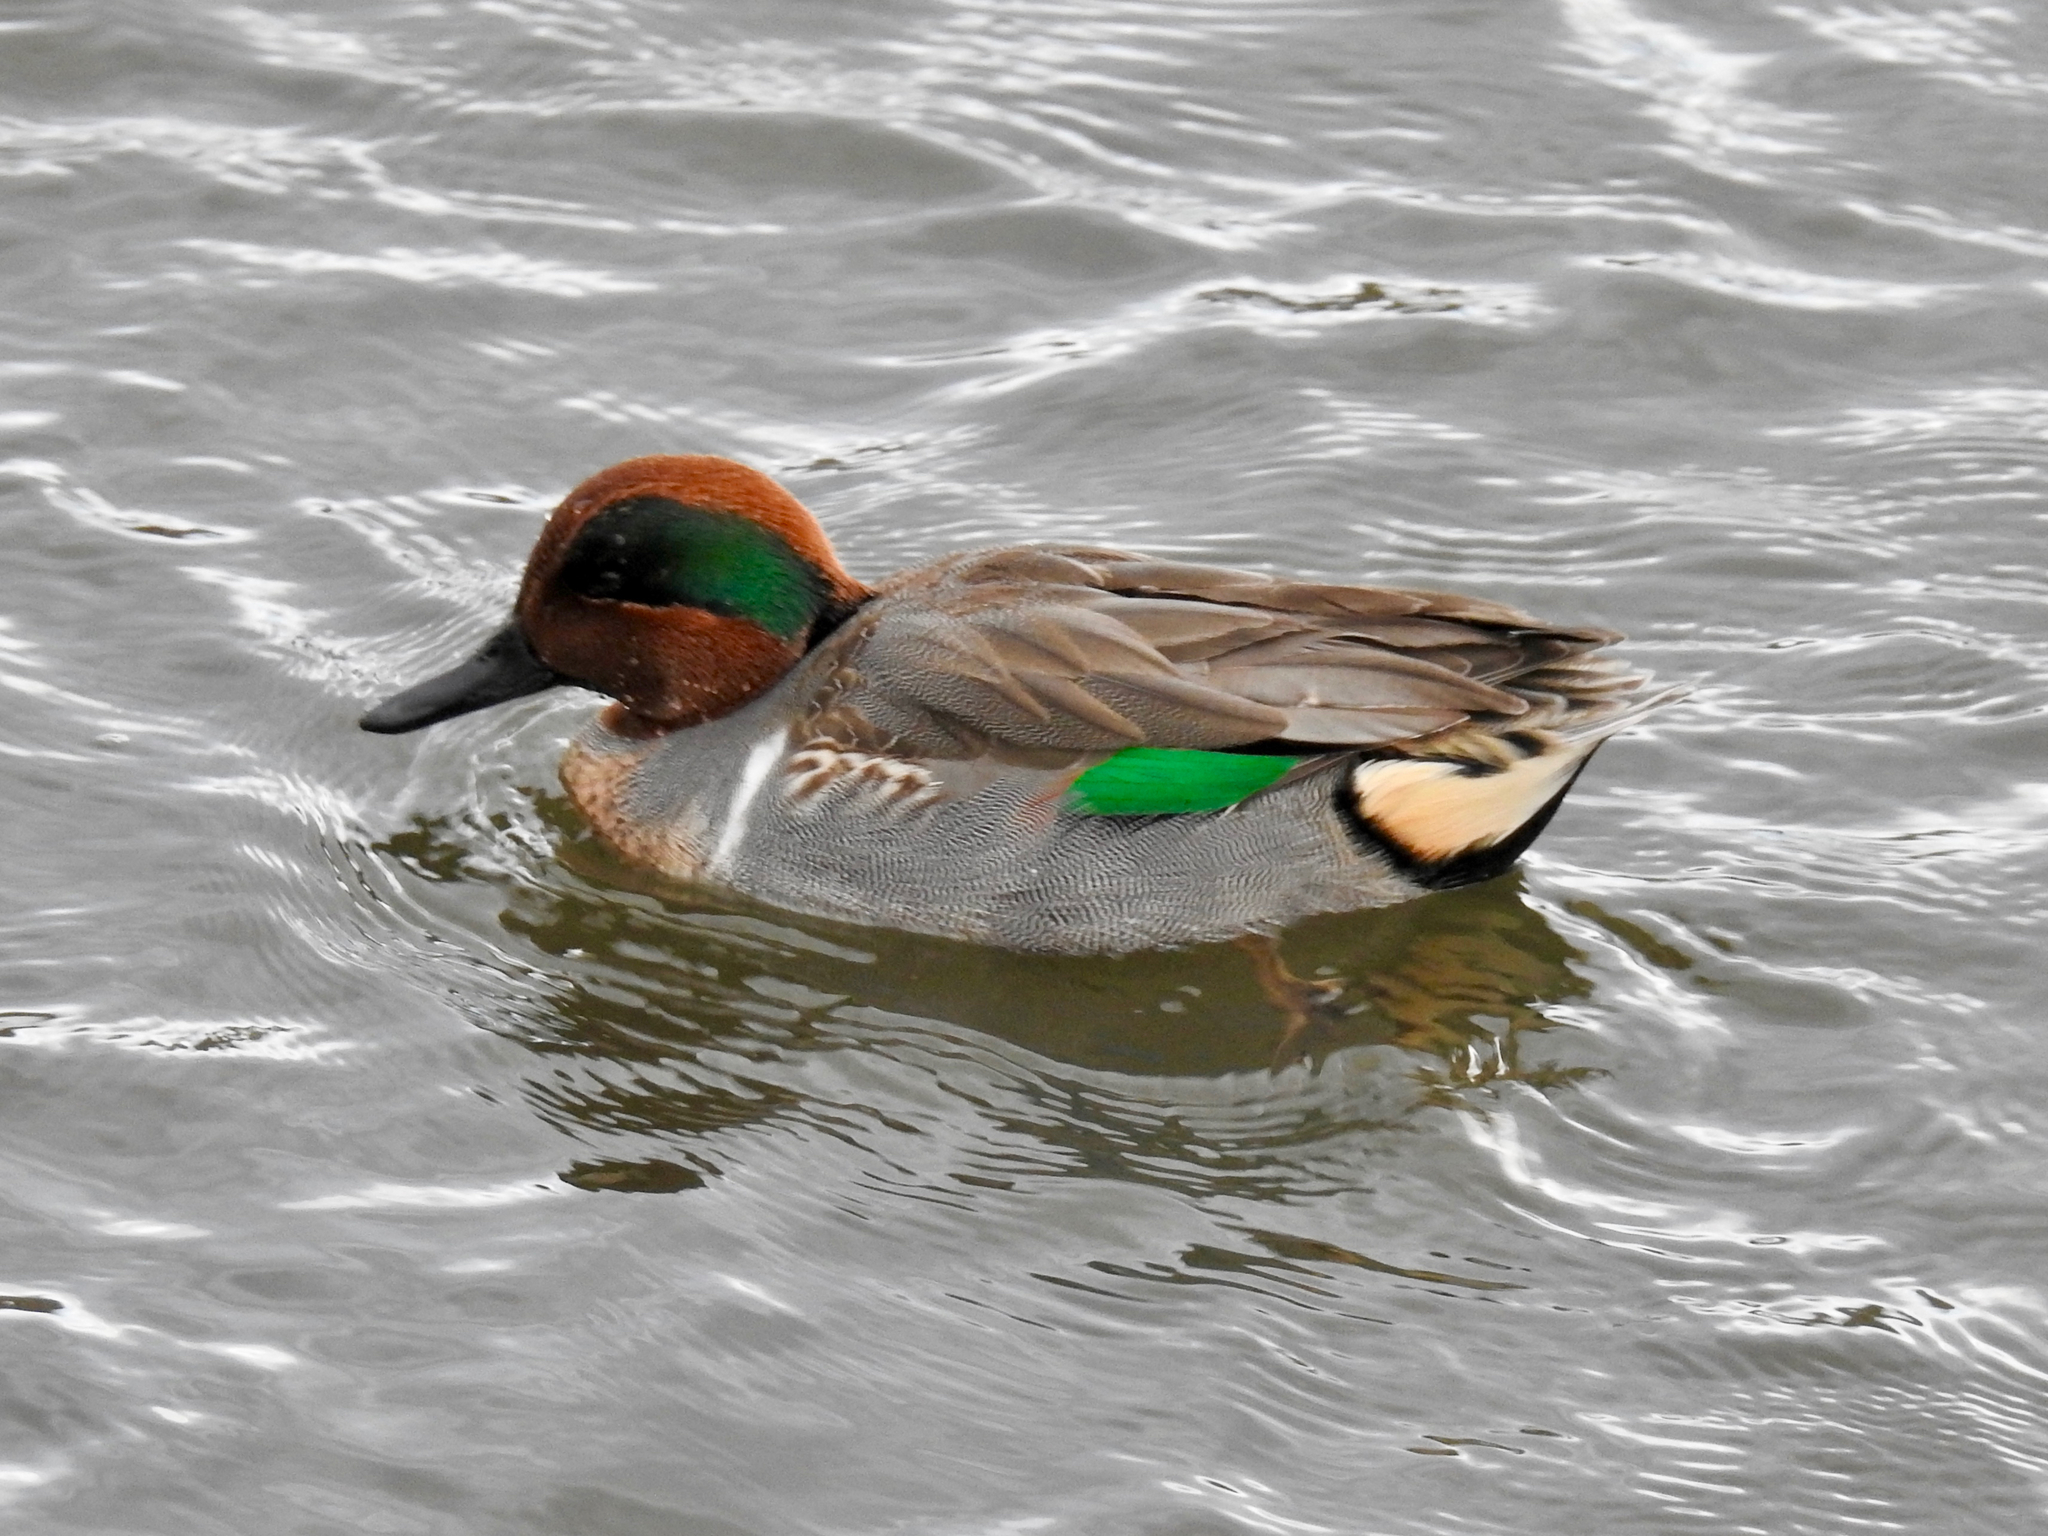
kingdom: Animalia
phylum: Chordata
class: Aves
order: Anseriformes
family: Anatidae
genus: Anas
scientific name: Anas crecca
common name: Eurasian teal
